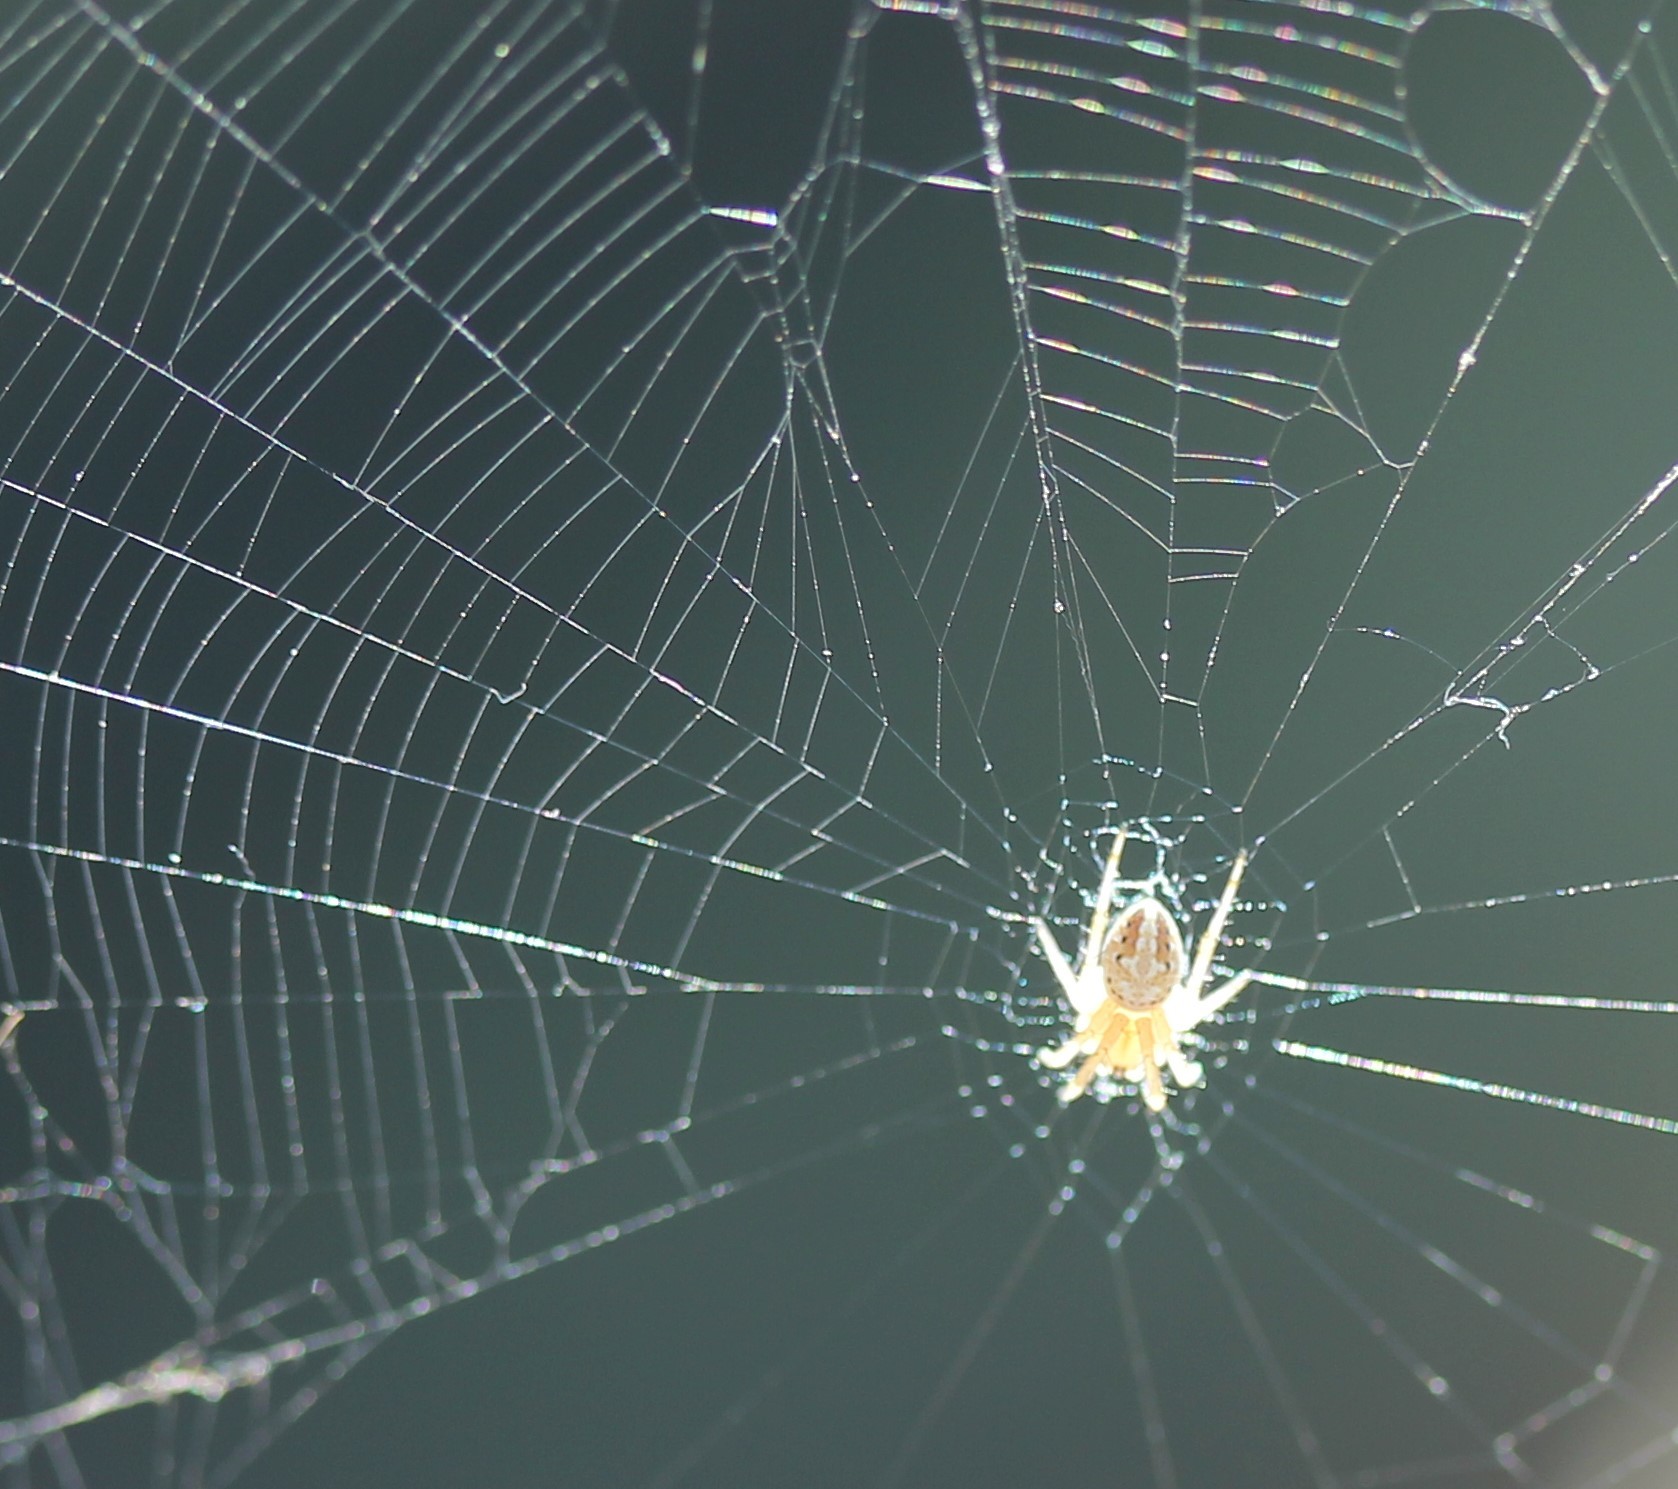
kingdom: Animalia
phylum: Arthropoda
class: Arachnida
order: Araneae
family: Araneidae
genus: Neoscona
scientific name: Neoscona oaxacensis
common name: Orb weavers
